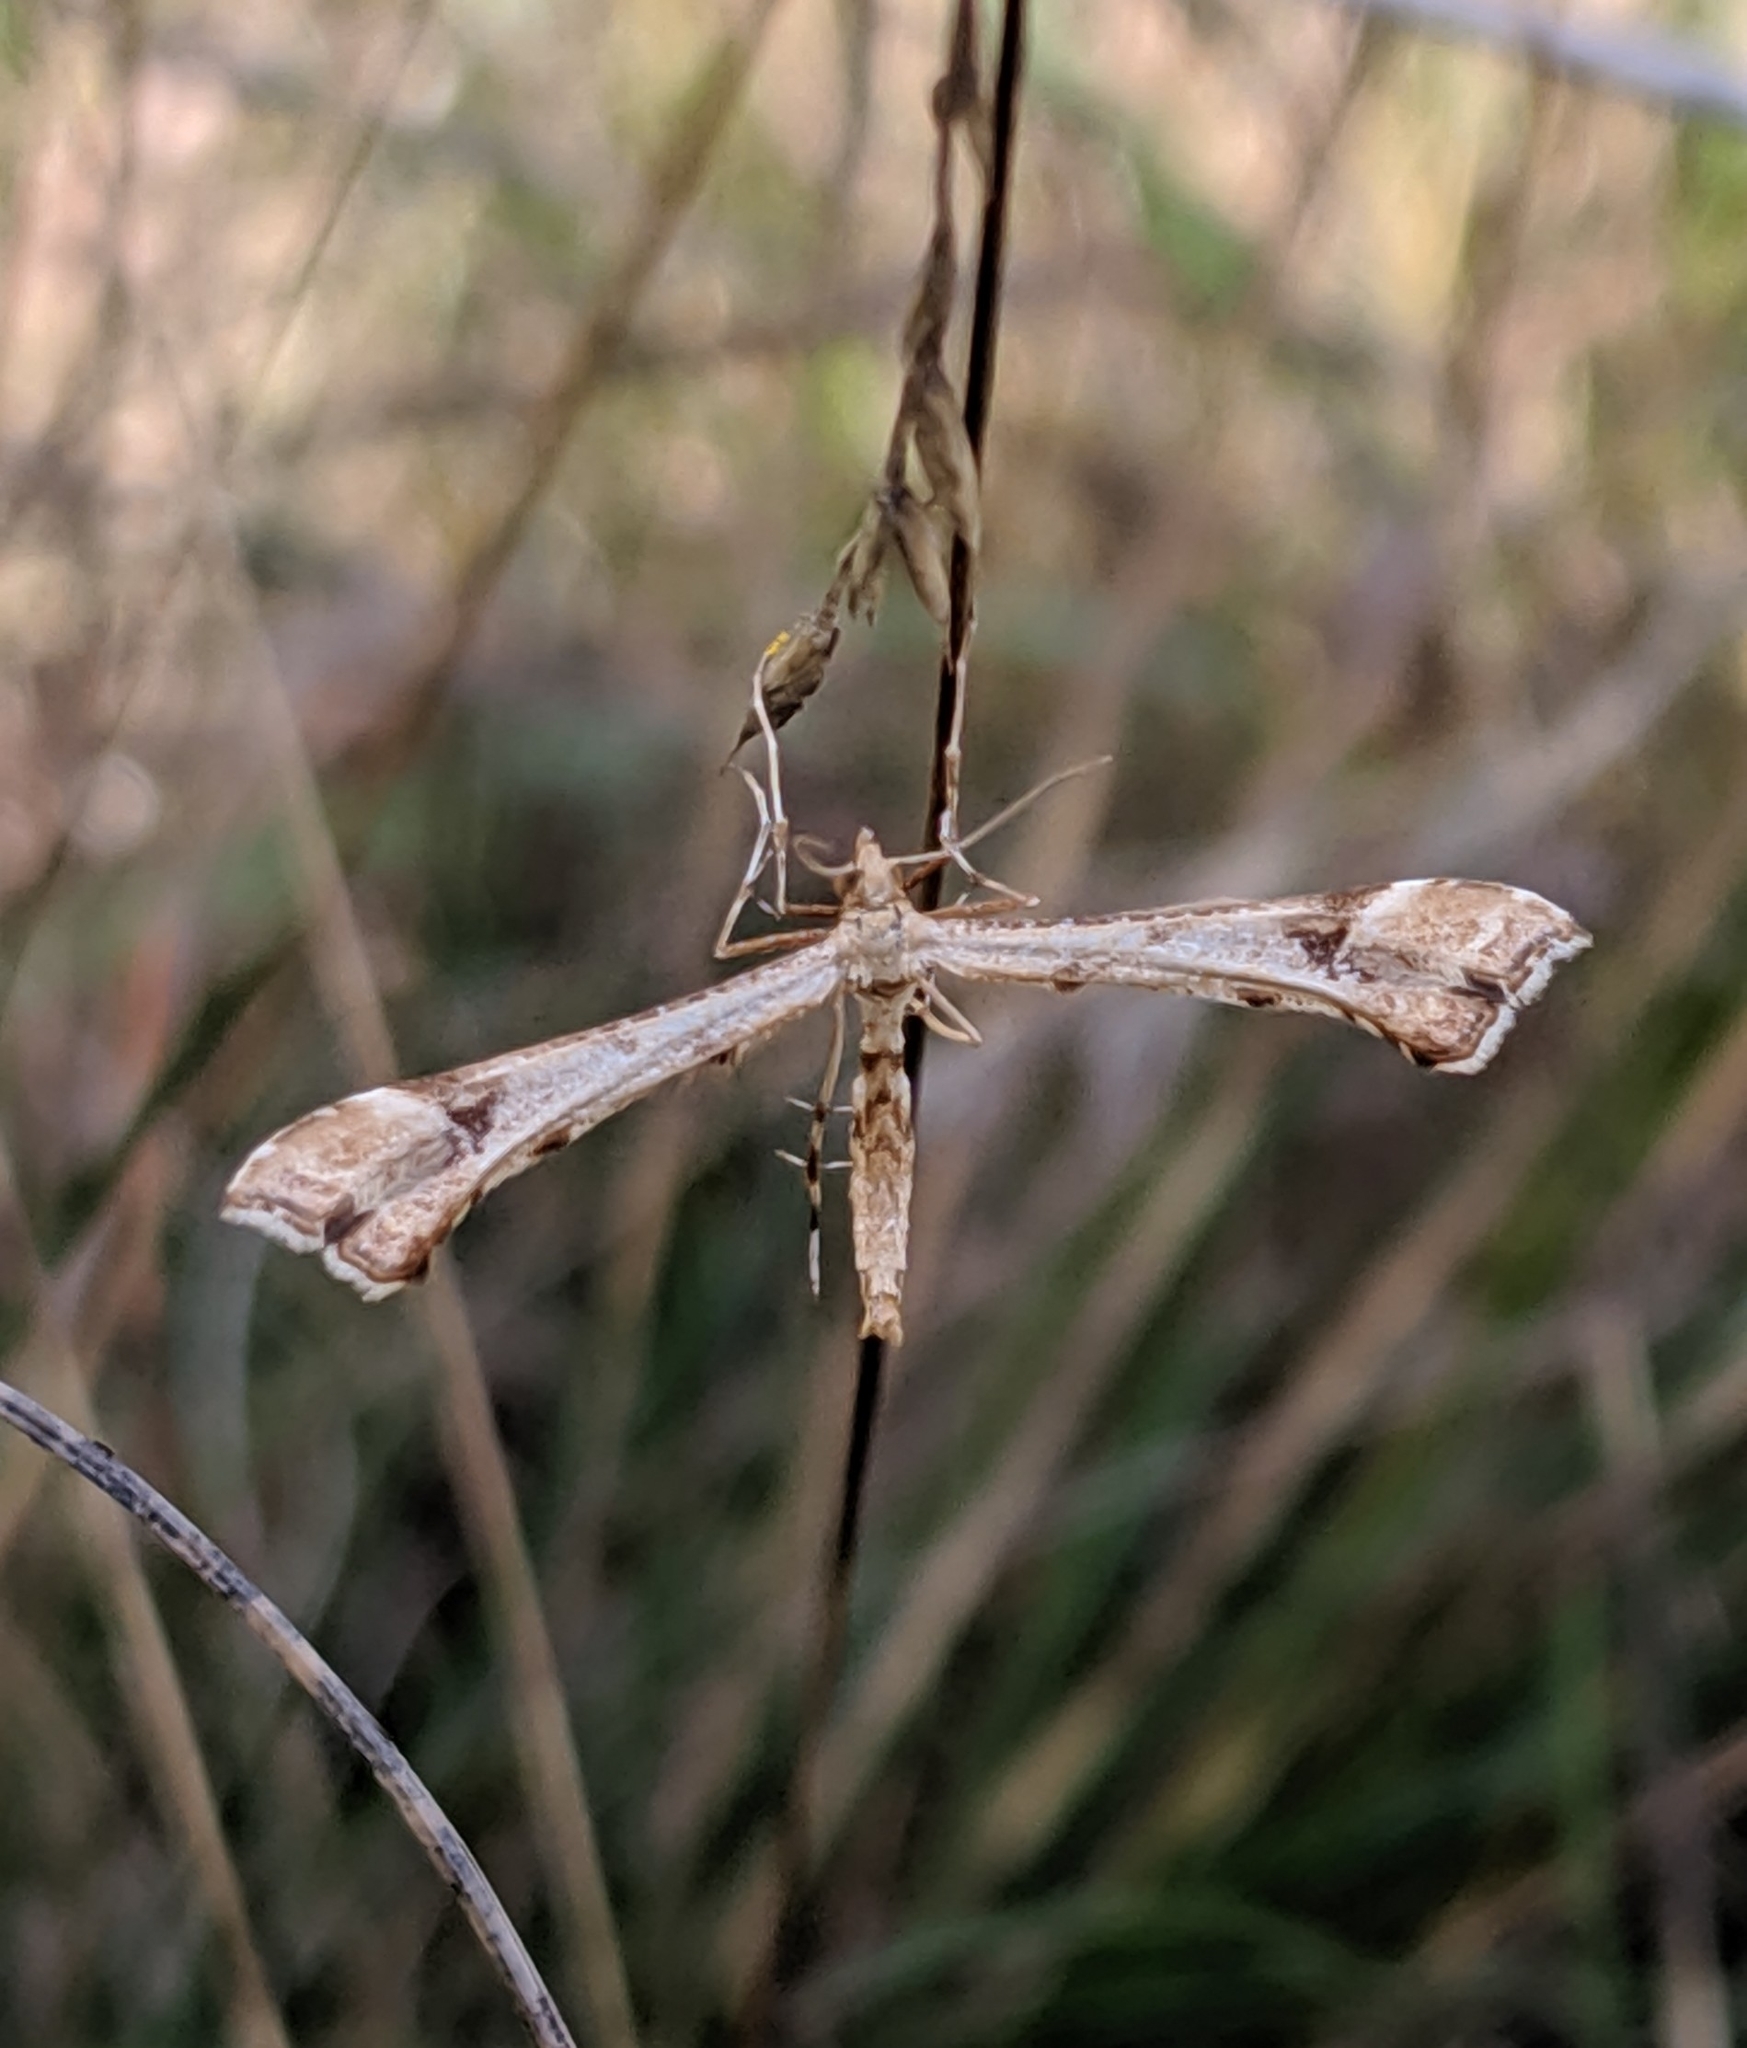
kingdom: Animalia
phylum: Arthropoda
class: Insecta
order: Lepidoptera
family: Pterophoridae
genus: Platyptilia
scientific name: Platyptilia carduidactylus
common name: Artichoke plume moth
